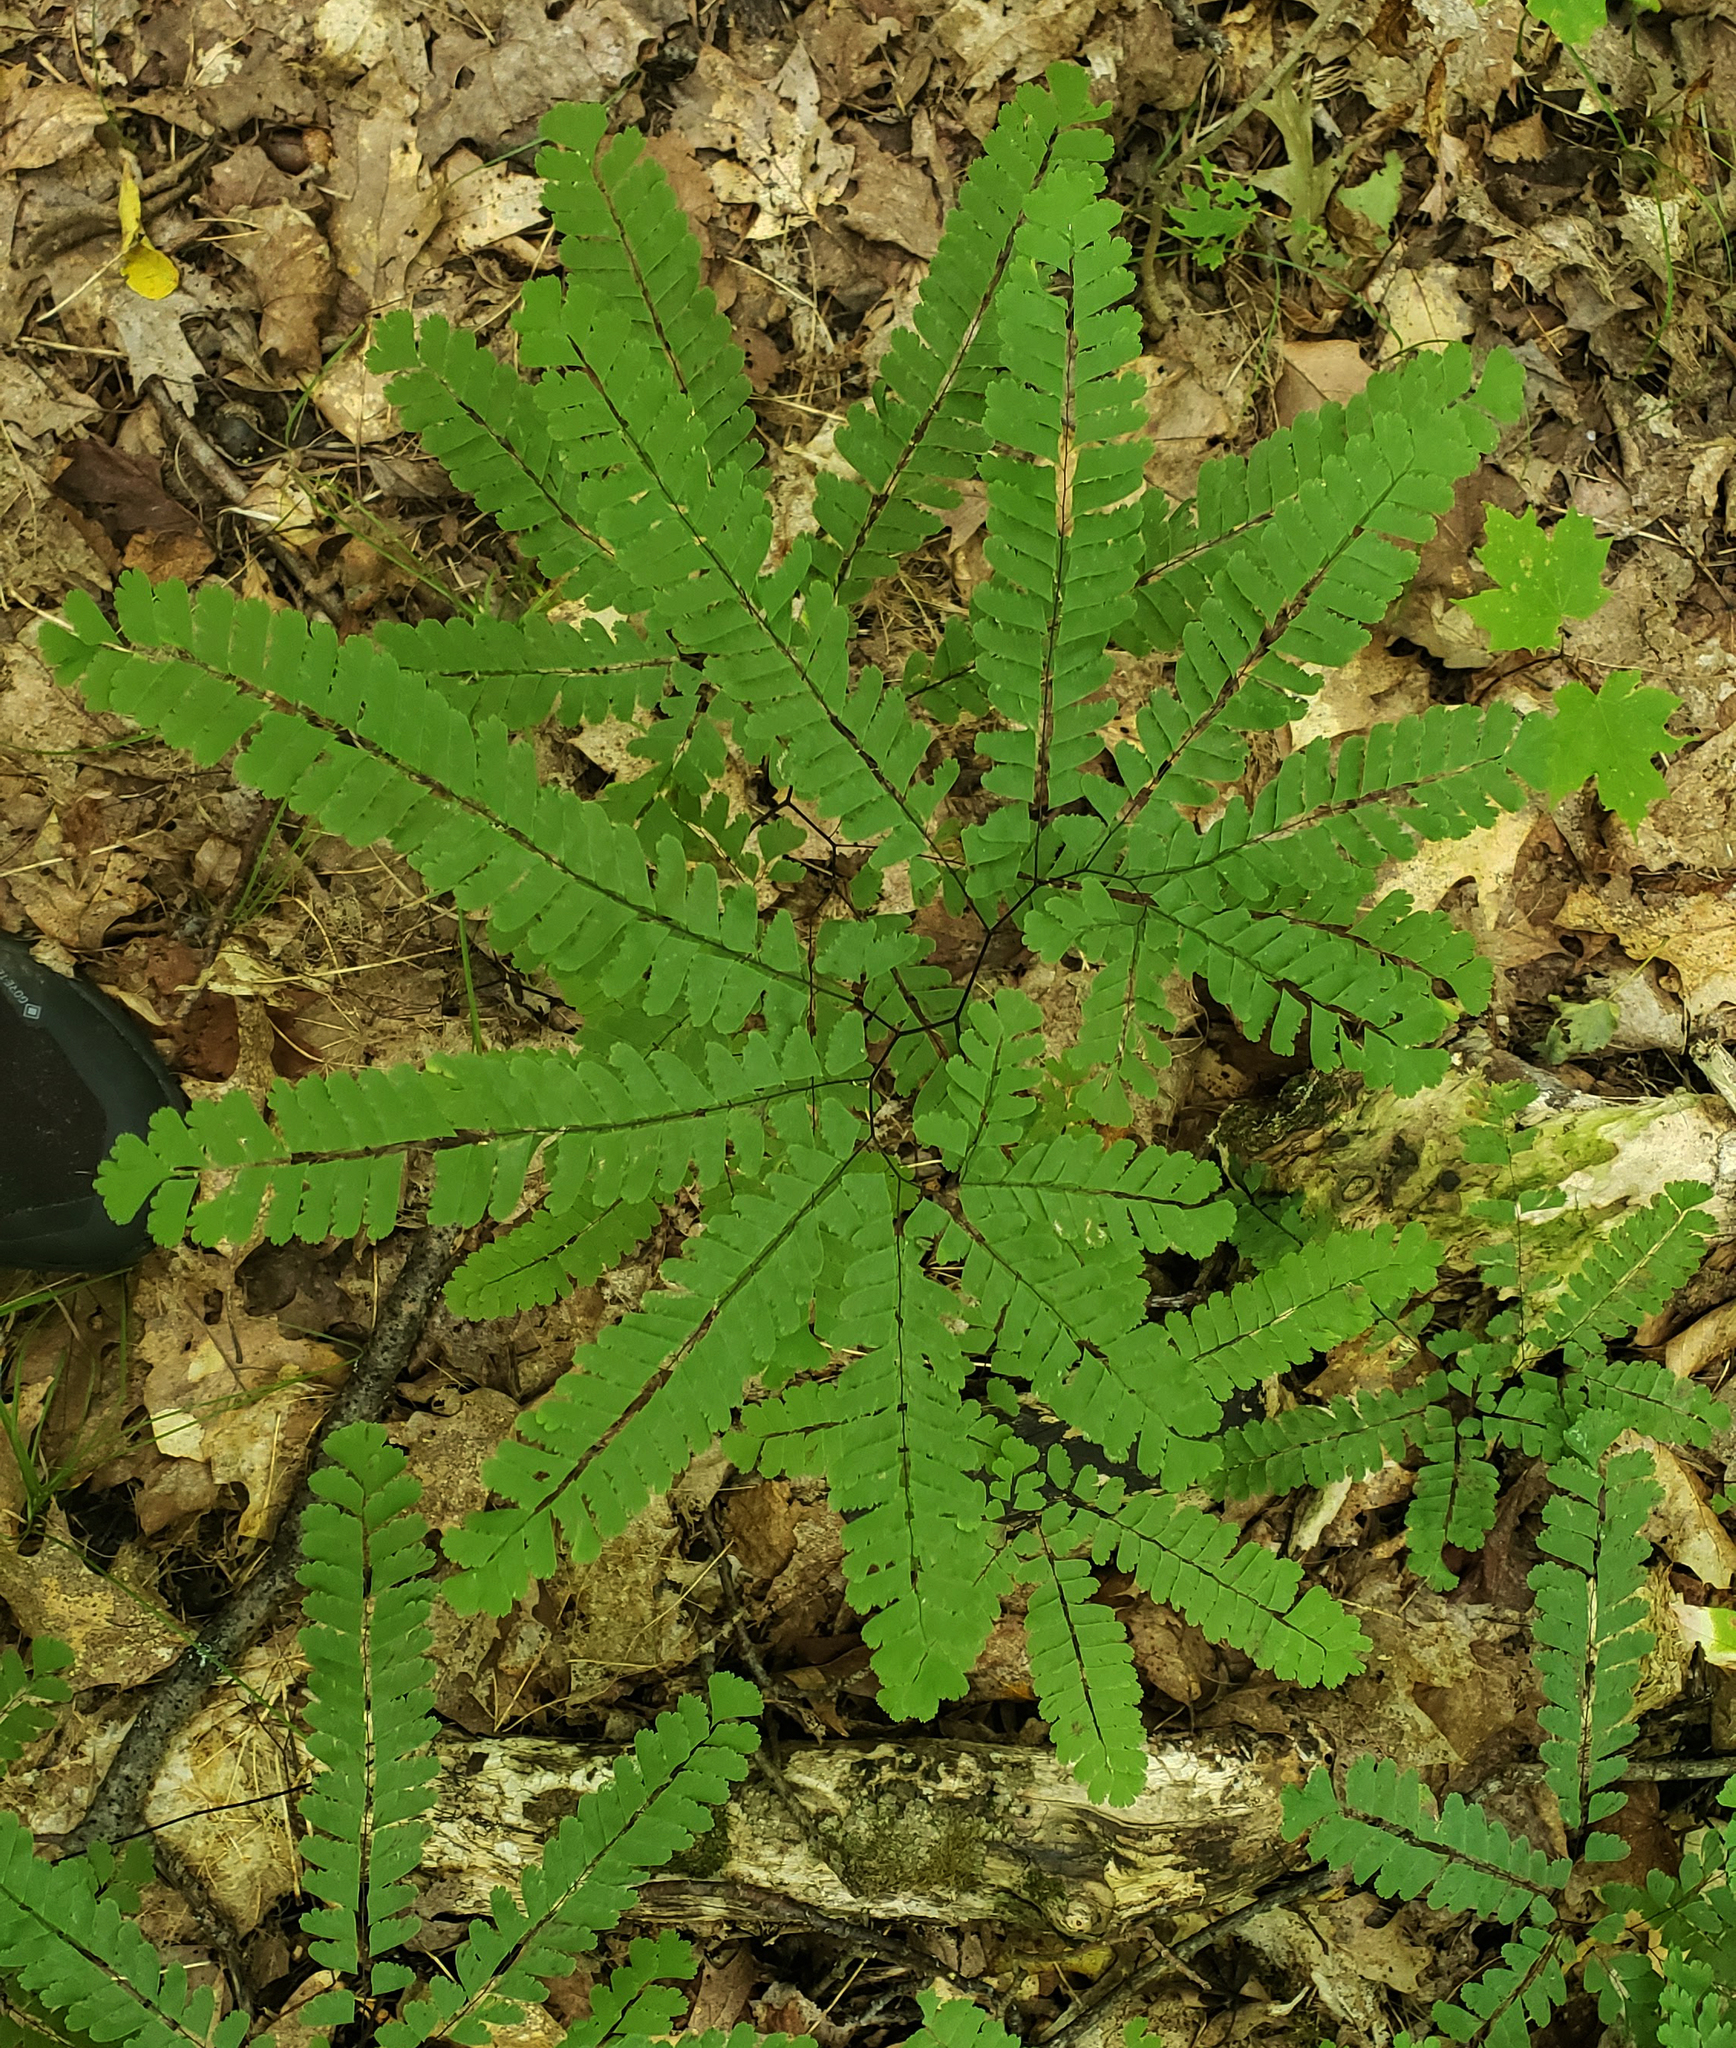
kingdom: Plantae
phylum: Tracheophyta
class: Polypodiopsida
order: Polypodiales
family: Pteridaceae
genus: Adiantum
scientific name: Adiantum pedatum
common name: Five-finger fern
